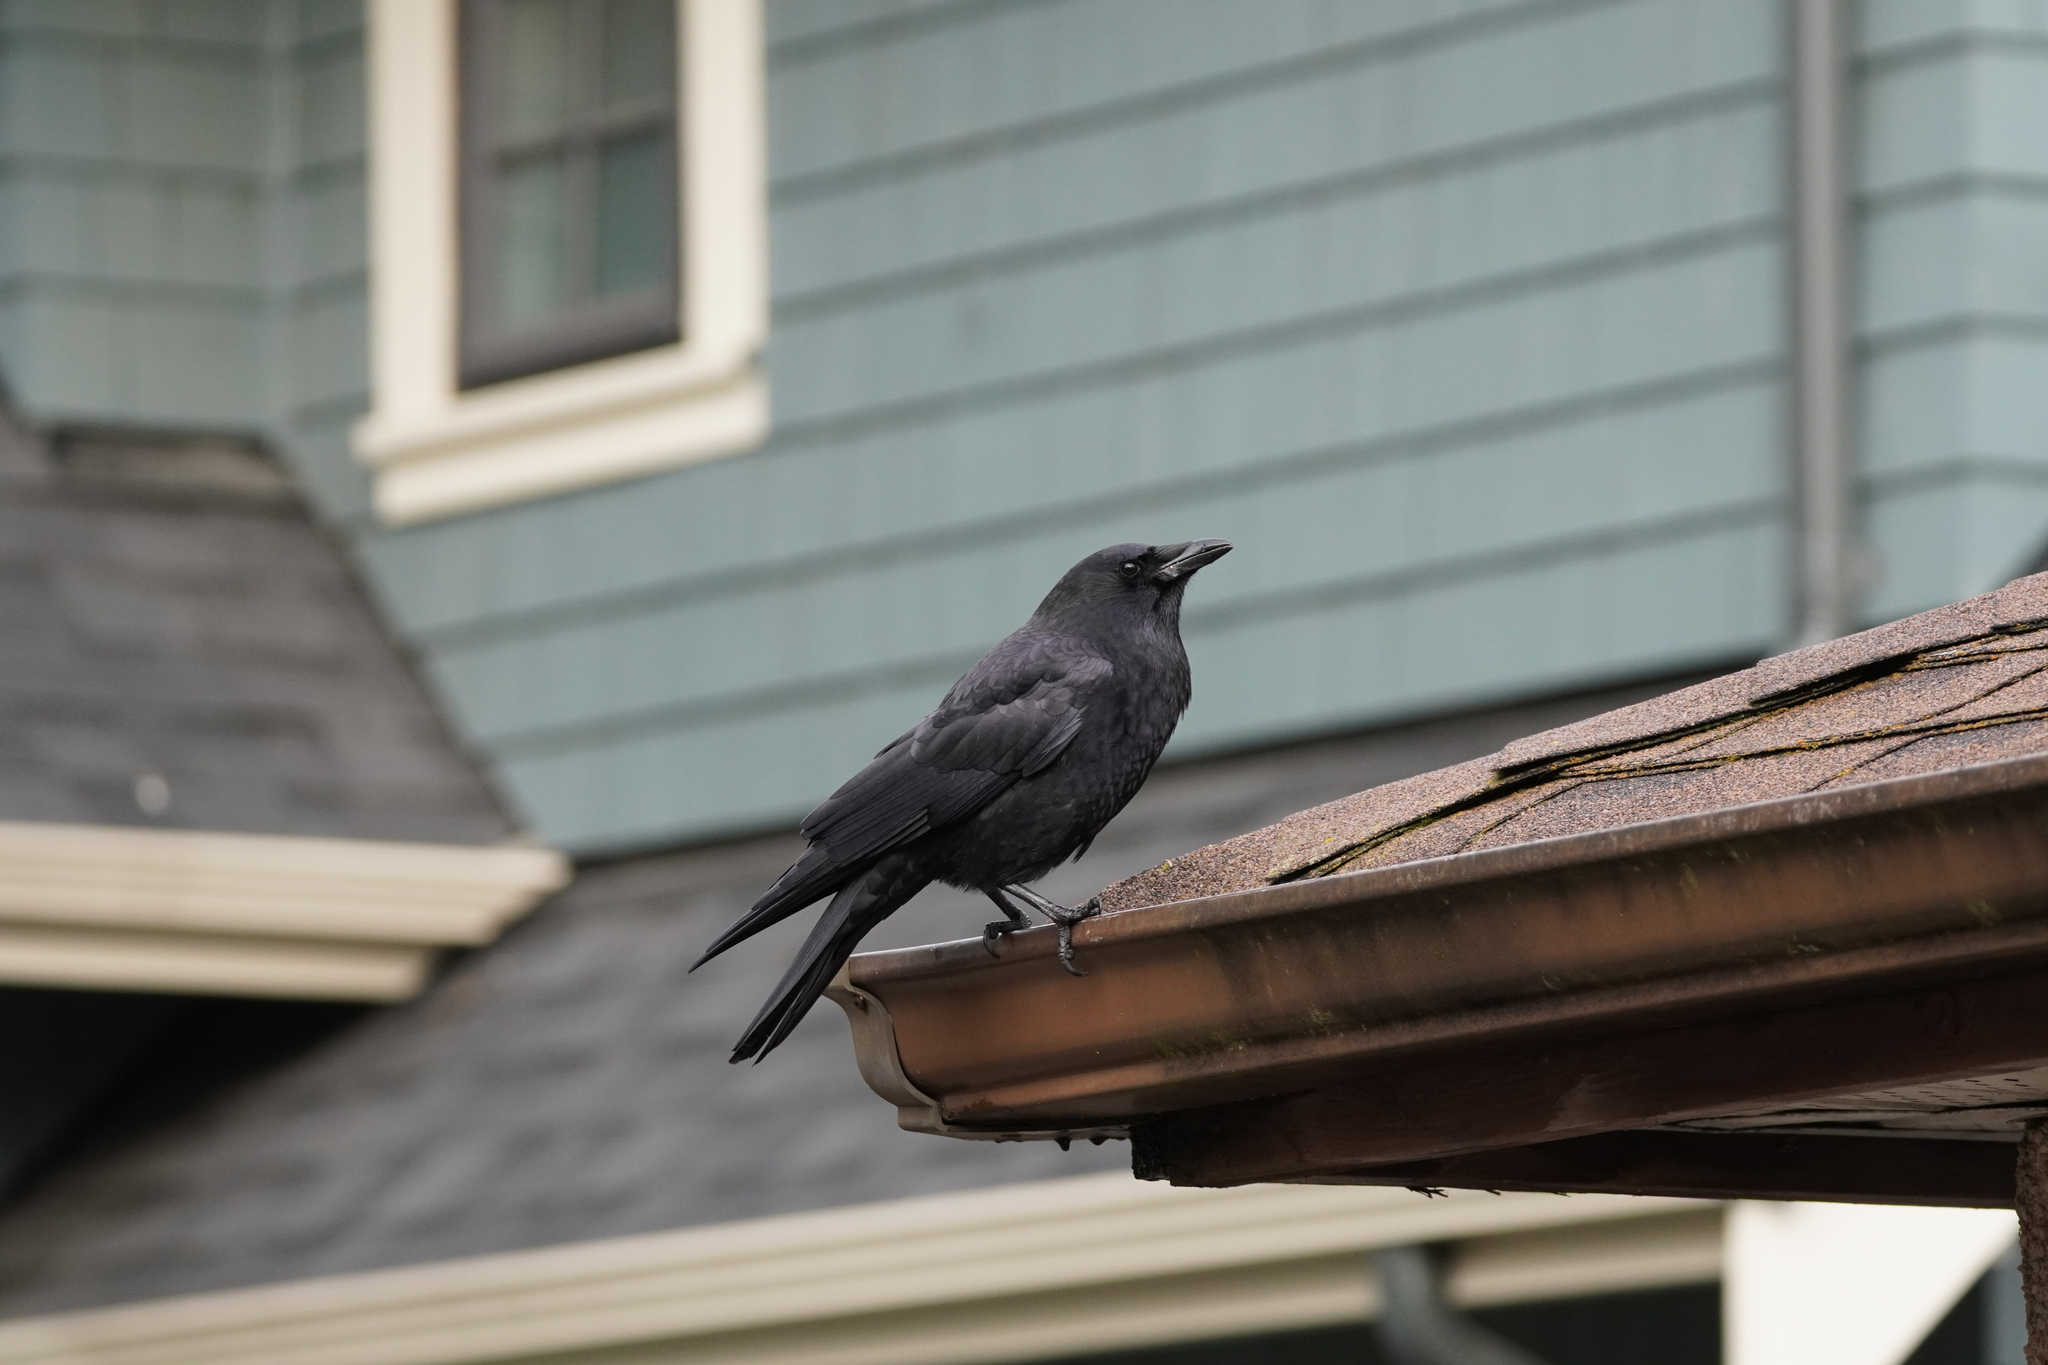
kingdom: Animalia
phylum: Chordata
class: Aves
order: Passeriformes
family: Corvidae
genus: Corvus
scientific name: Corvus brachyrhynchos
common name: American crow
